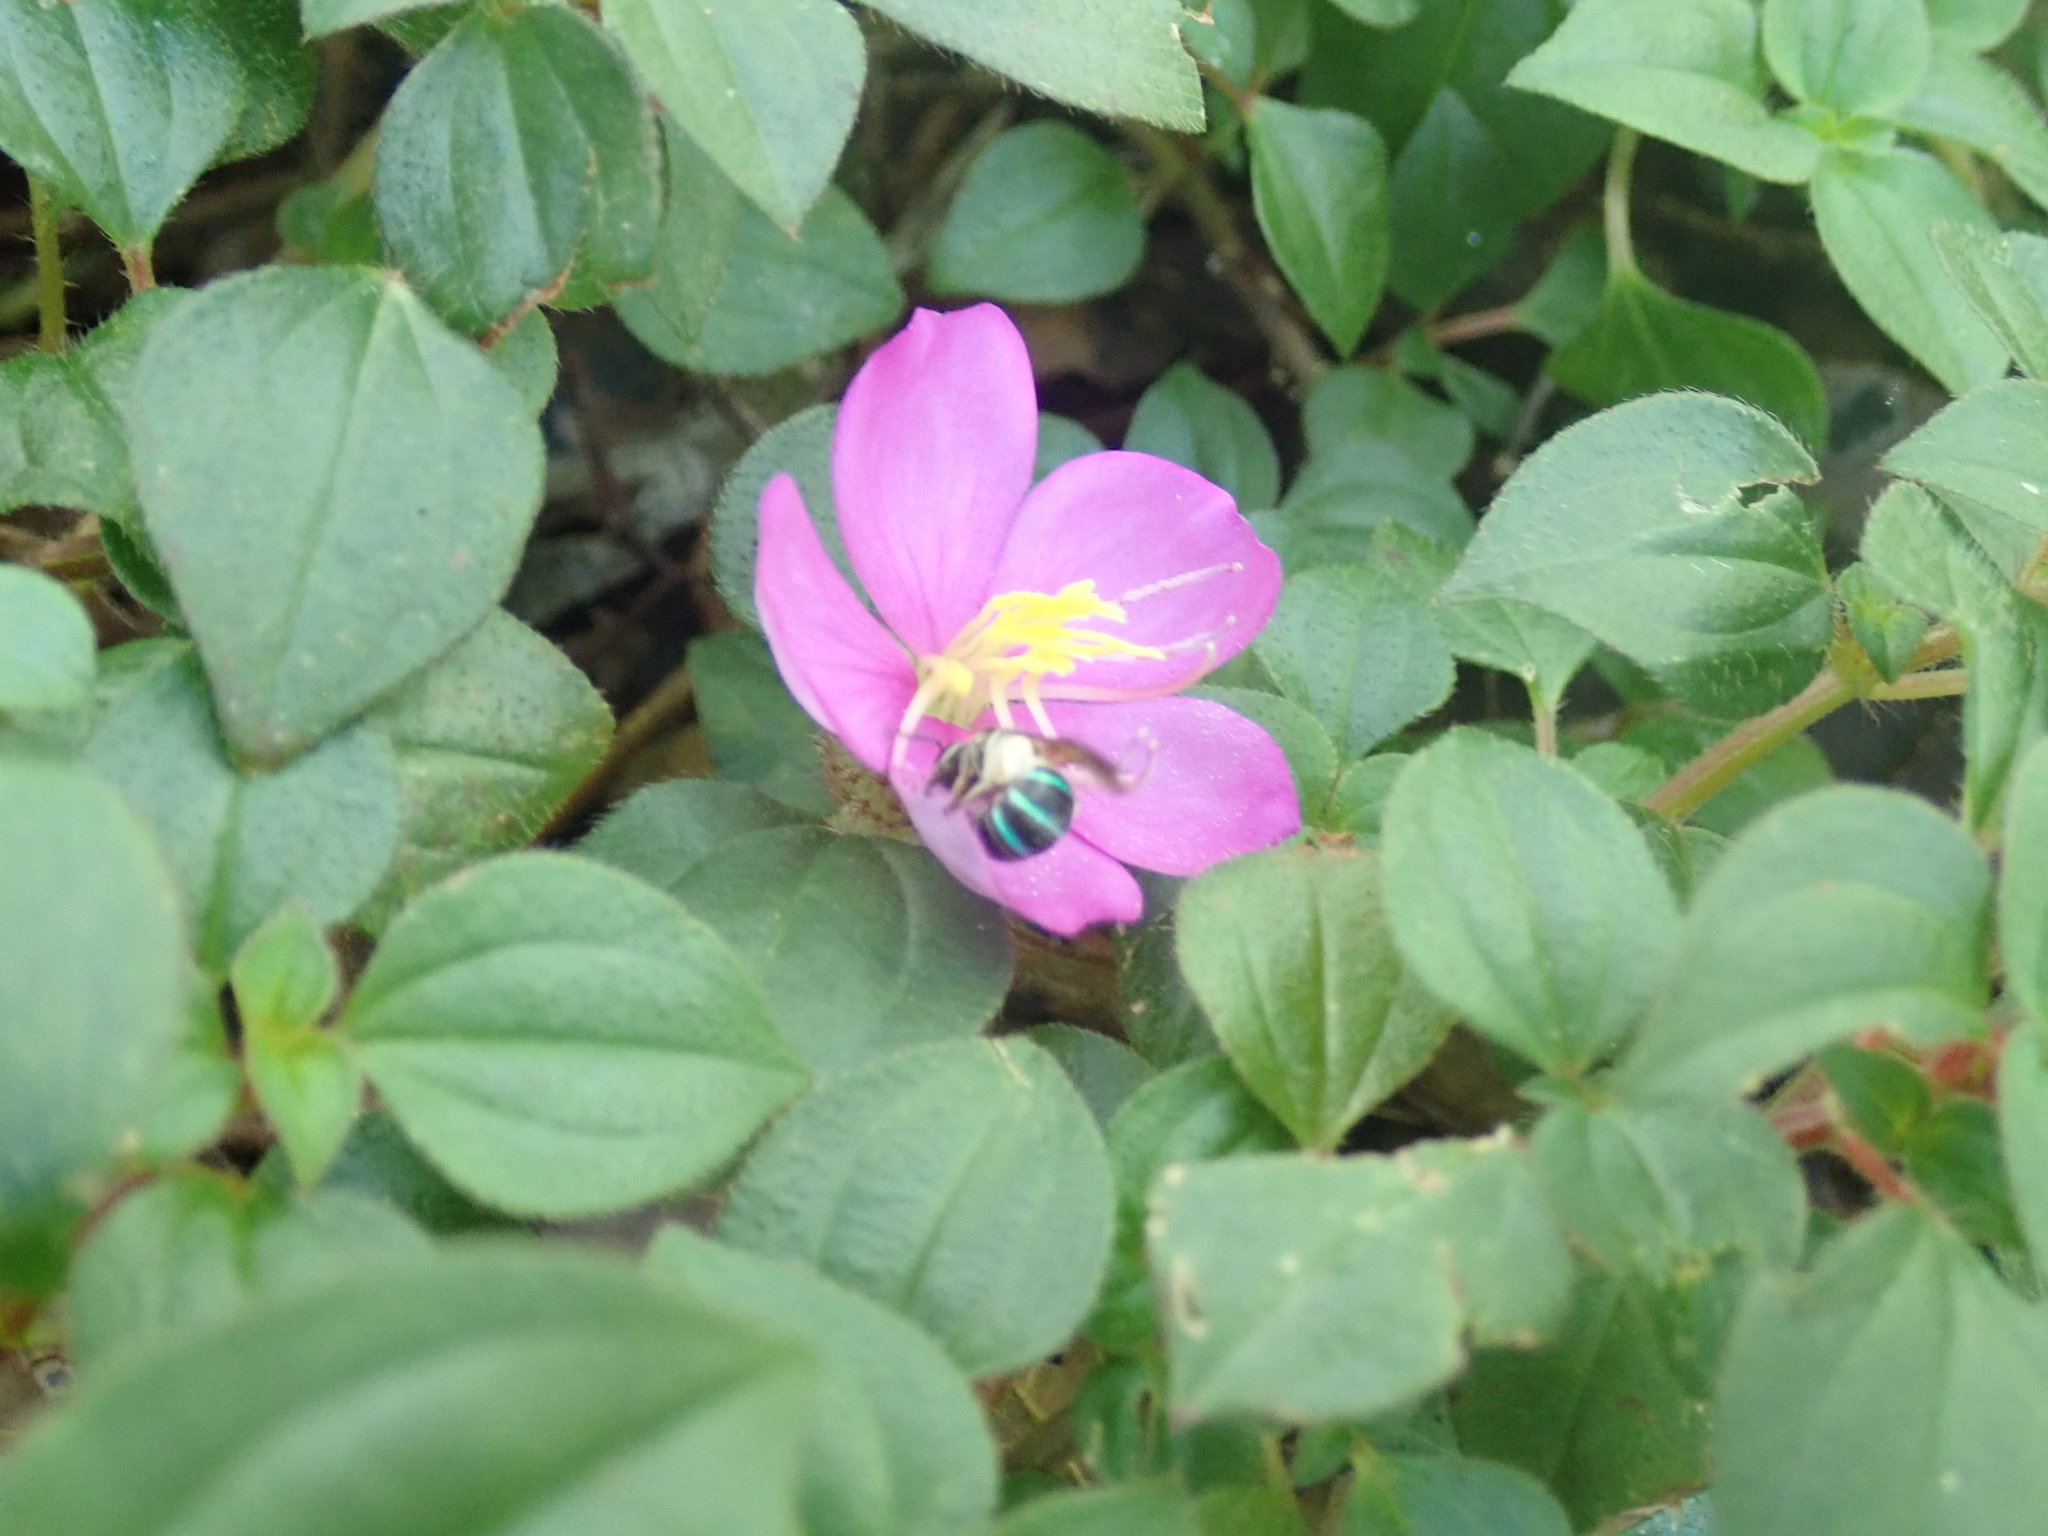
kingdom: Animalia
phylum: Arthropoda
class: Insecta
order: Hymenoptera
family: Halictidae
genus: Nomia
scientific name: Nomia strigata
